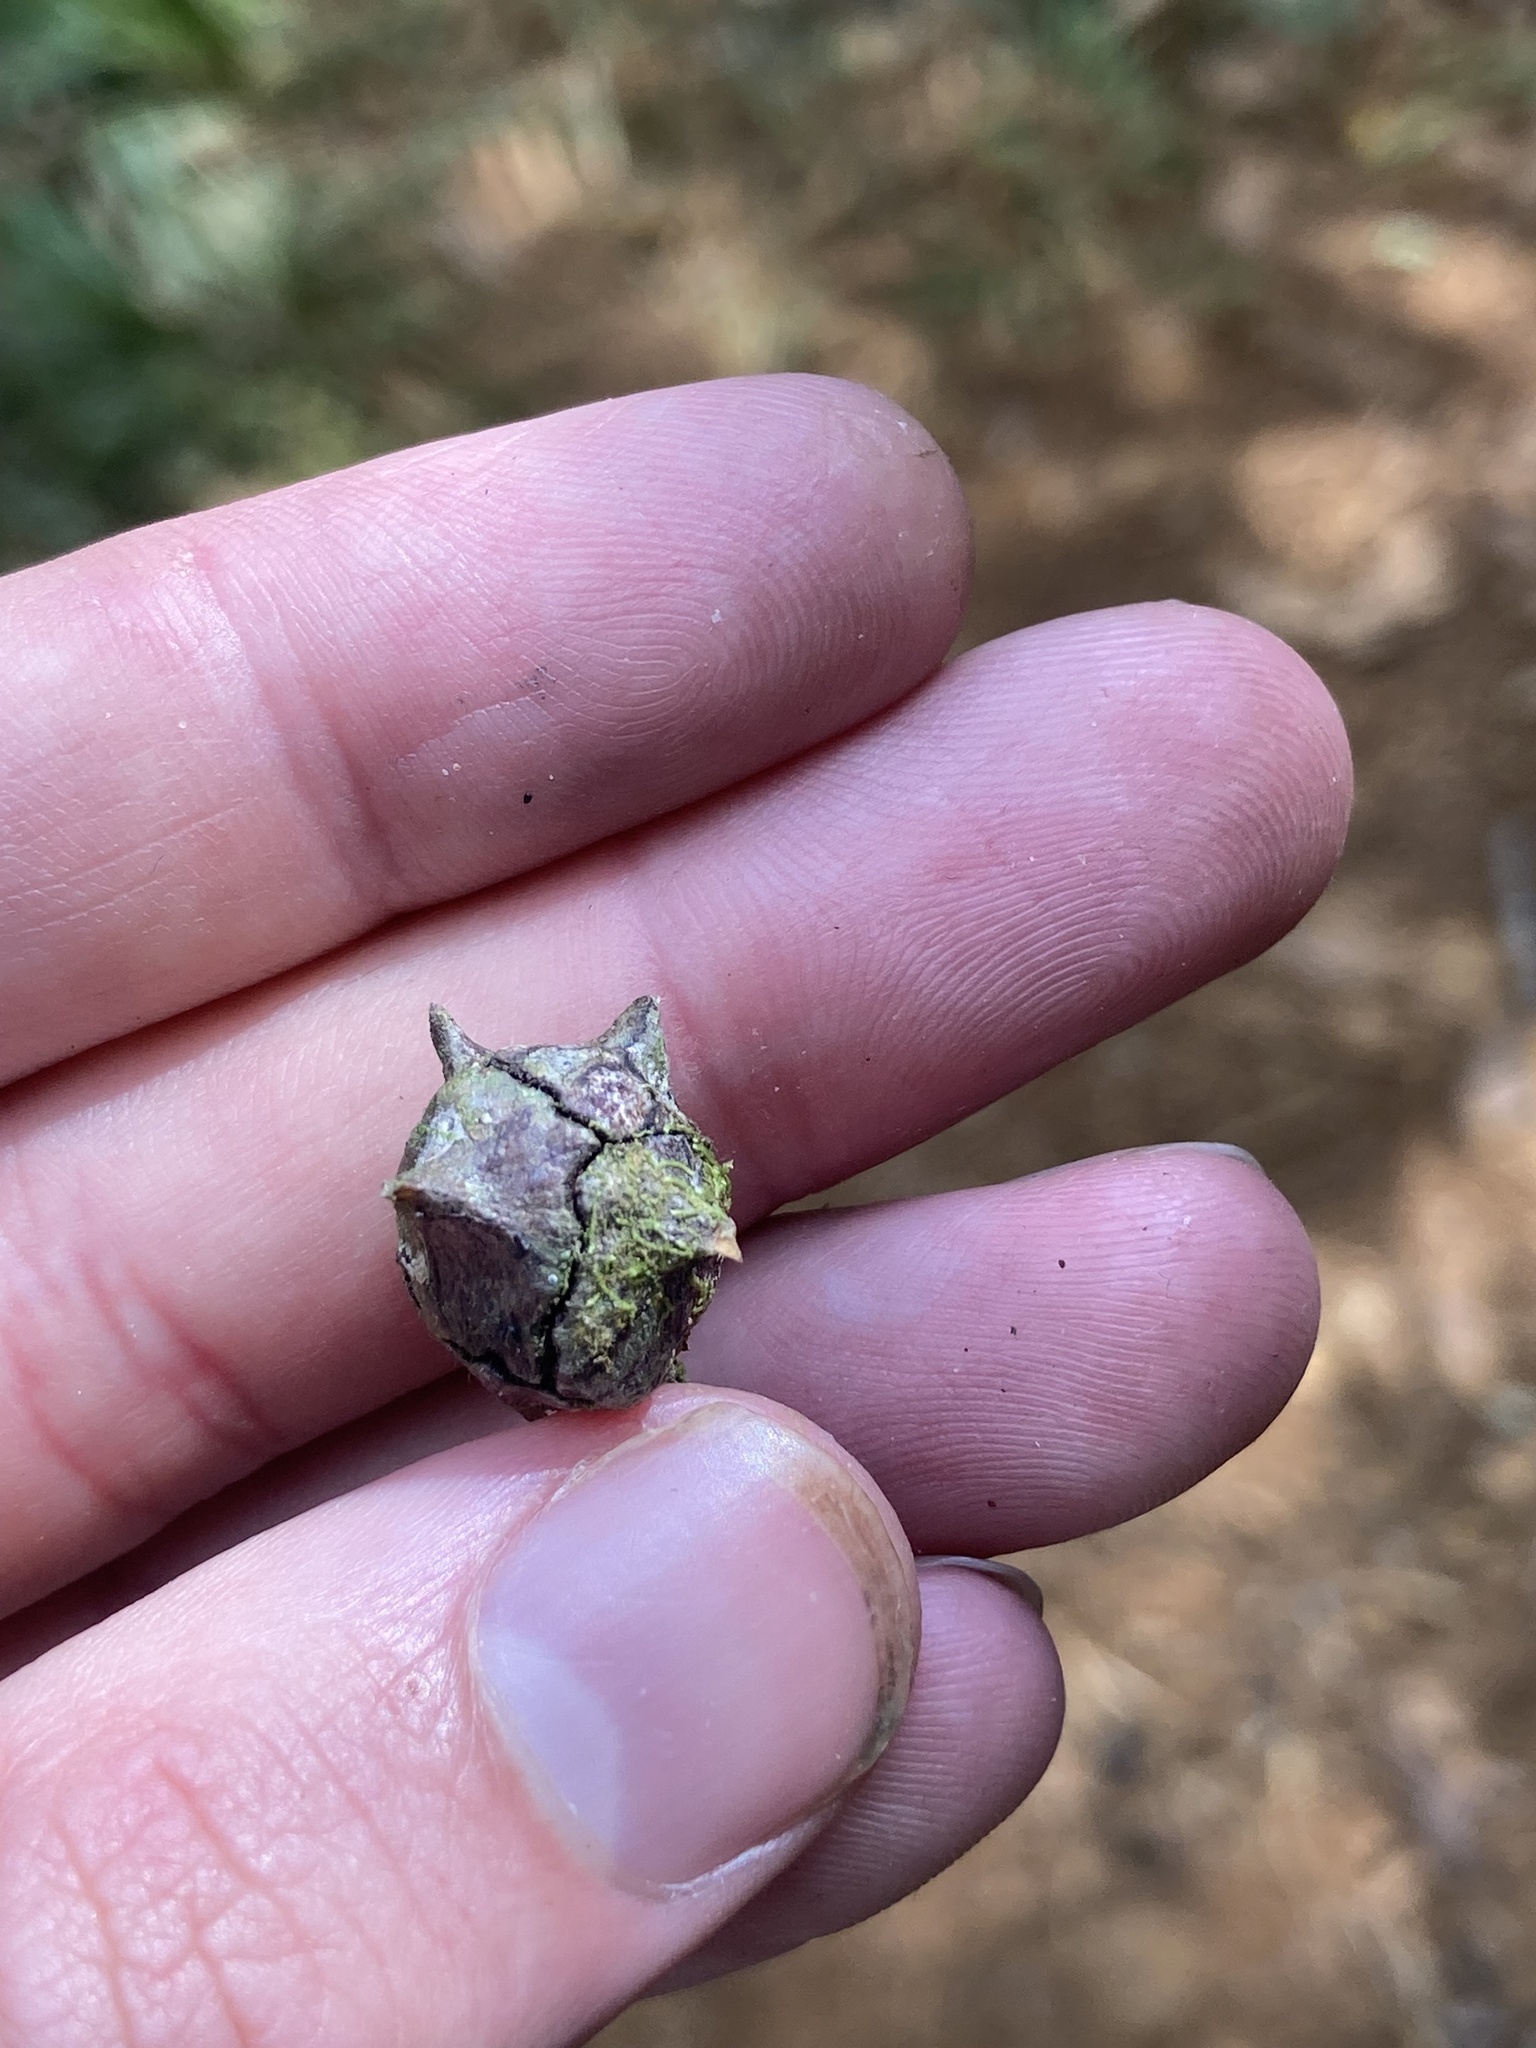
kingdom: Plantae
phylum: Tracheophyta
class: Pinopsida
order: Pinales
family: Cupressaceae
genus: Cupressus
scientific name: Cupressus lusitanica
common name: Mexican cypress
